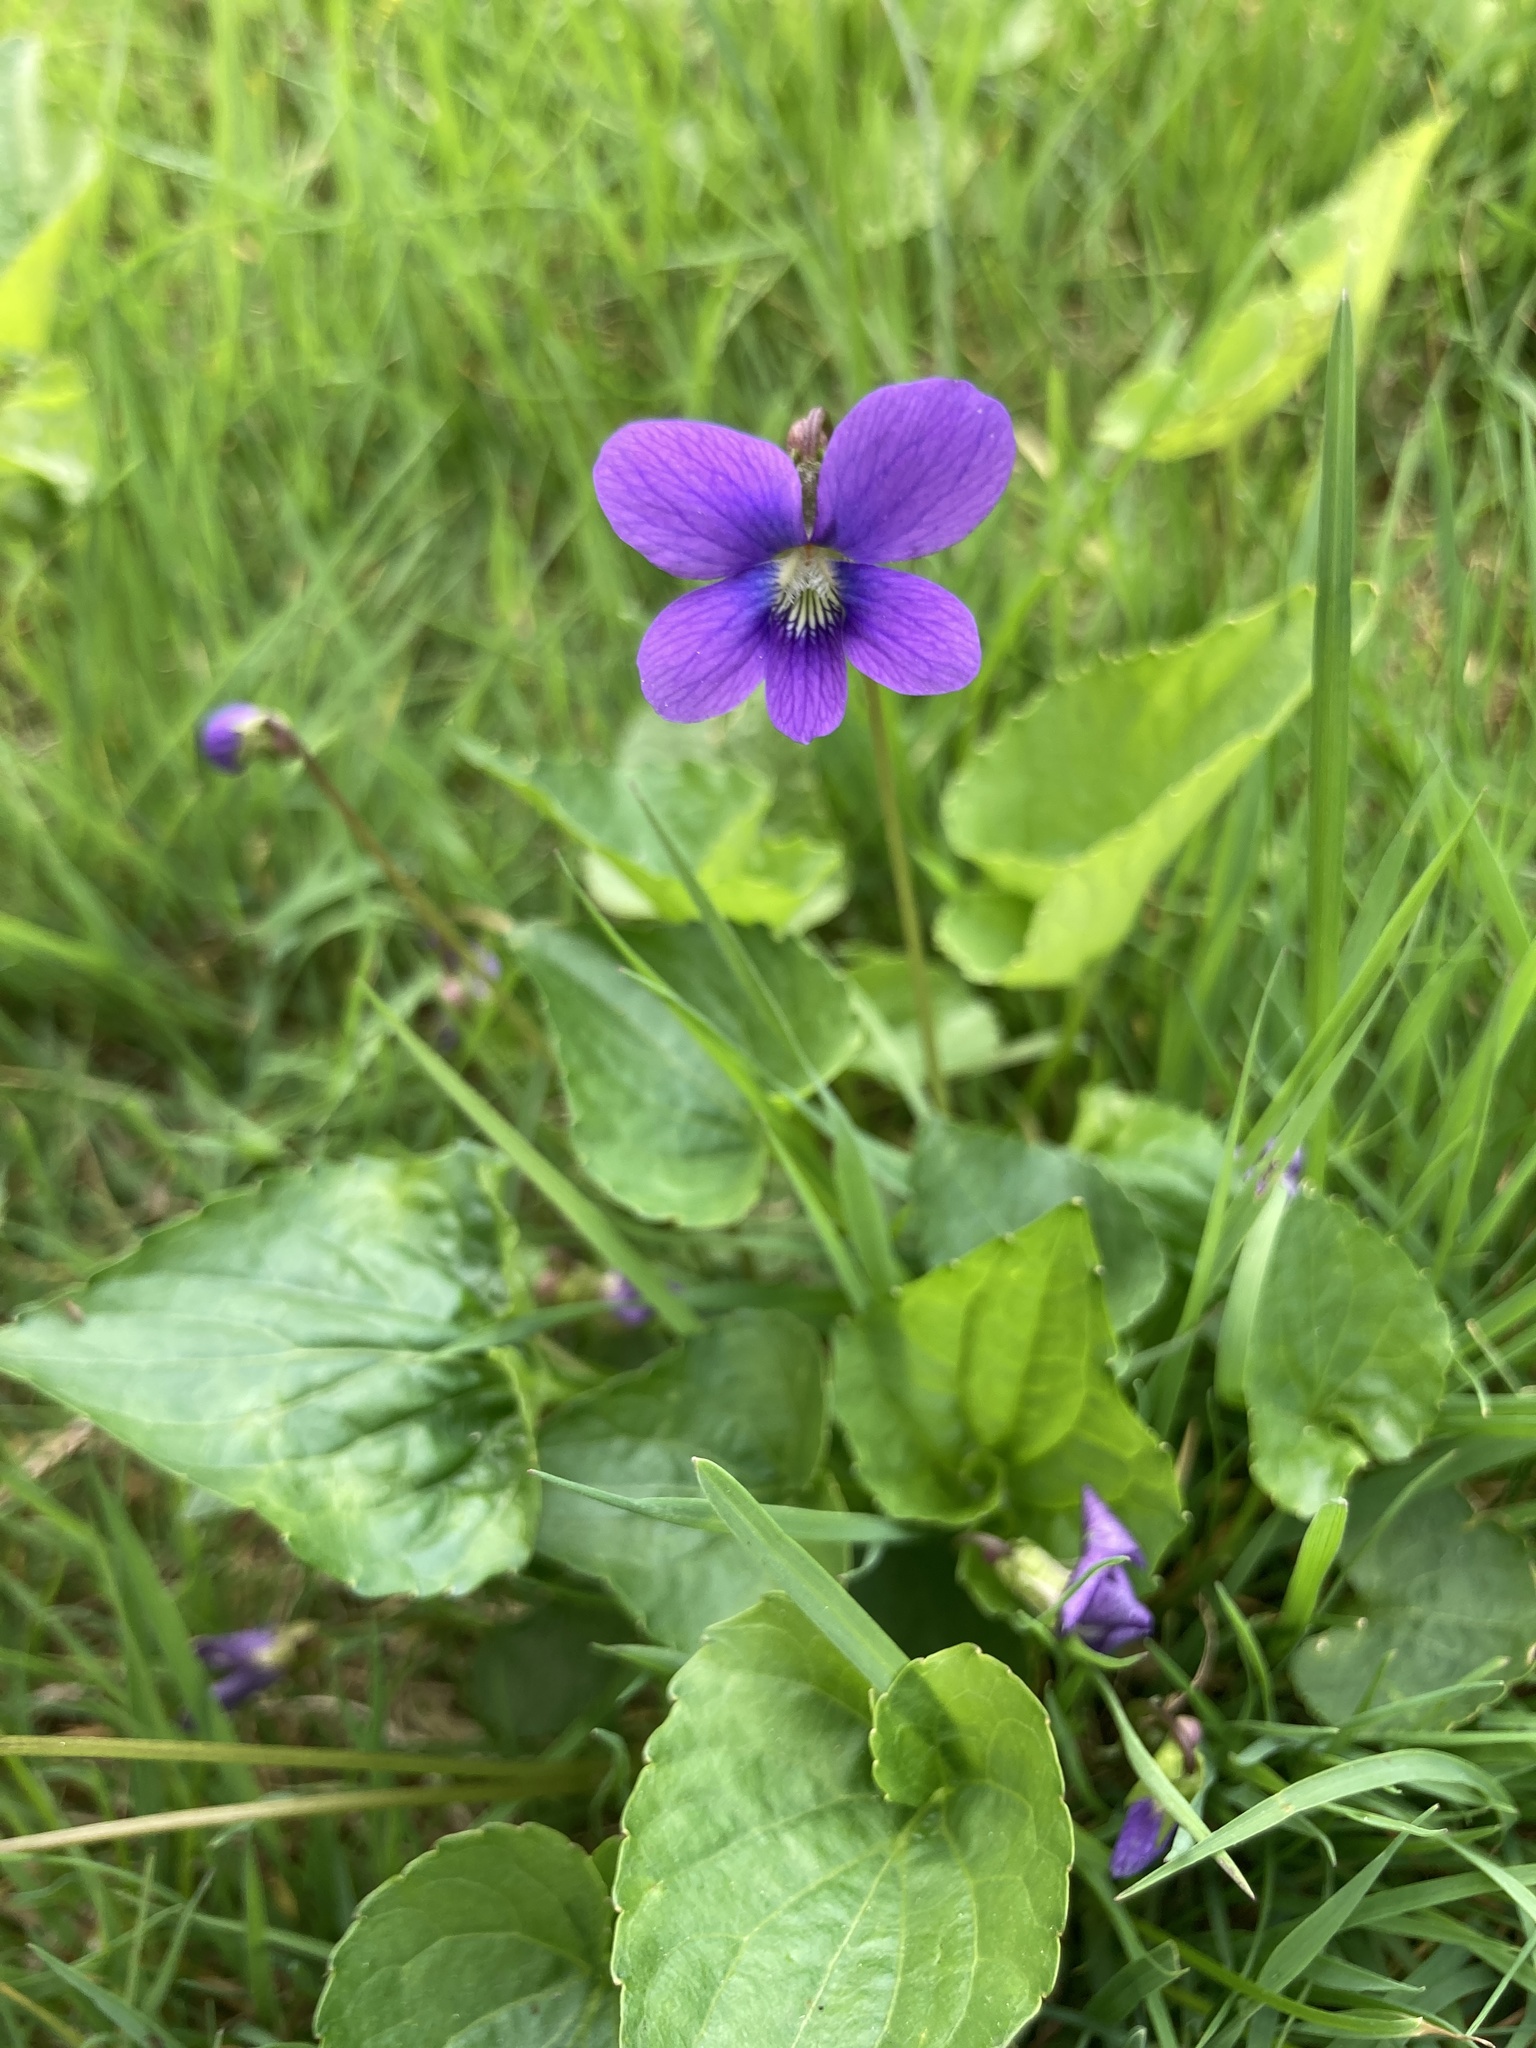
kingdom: Plantae
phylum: Tracheophyta
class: Magnoliopsida
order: Malpighiales
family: Violaceae
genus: Viola
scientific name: Viola sororia
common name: Dooryard violet
